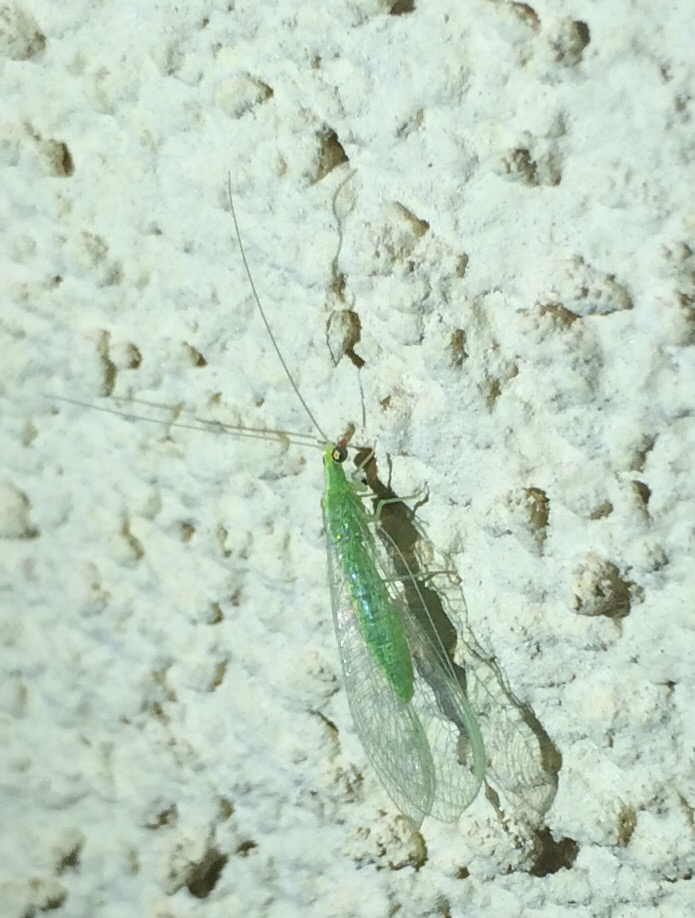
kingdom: Animalia
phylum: Arthropoda
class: Insecta
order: Neuroptera
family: Chrysopidae
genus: Chrysoperla
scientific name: Chrysoperla
